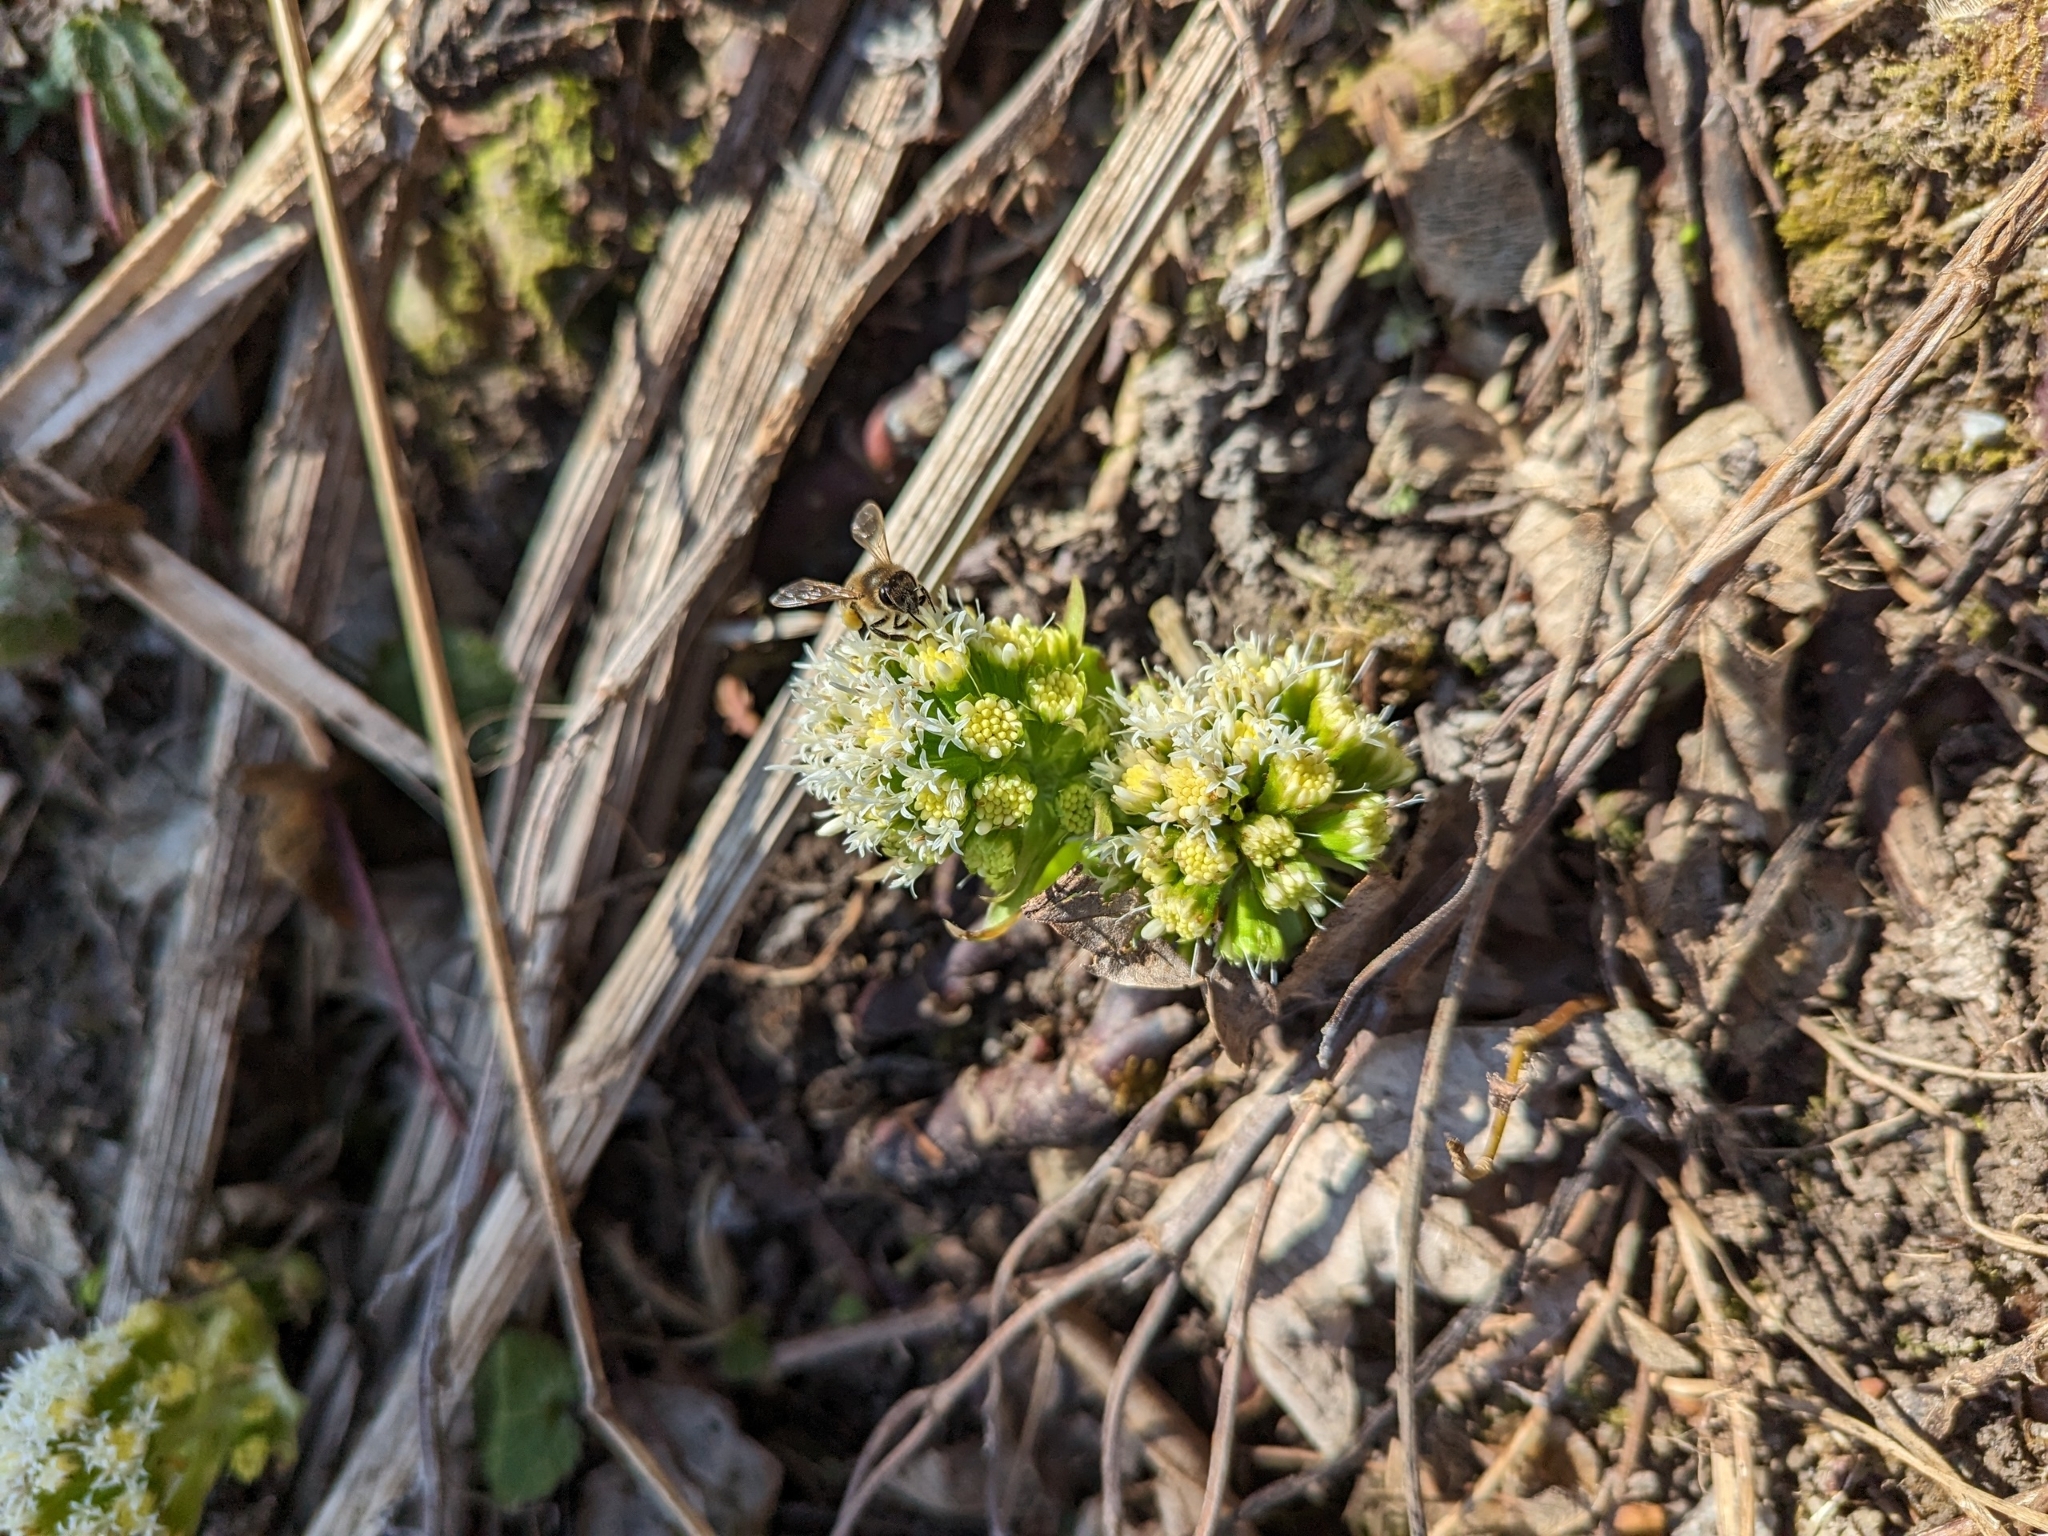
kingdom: Plantae
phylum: Tracheophyta
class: Magnoliopsida
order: Asterales
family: Asteraceae
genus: Petasites
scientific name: Petasites albus
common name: White butterbur
